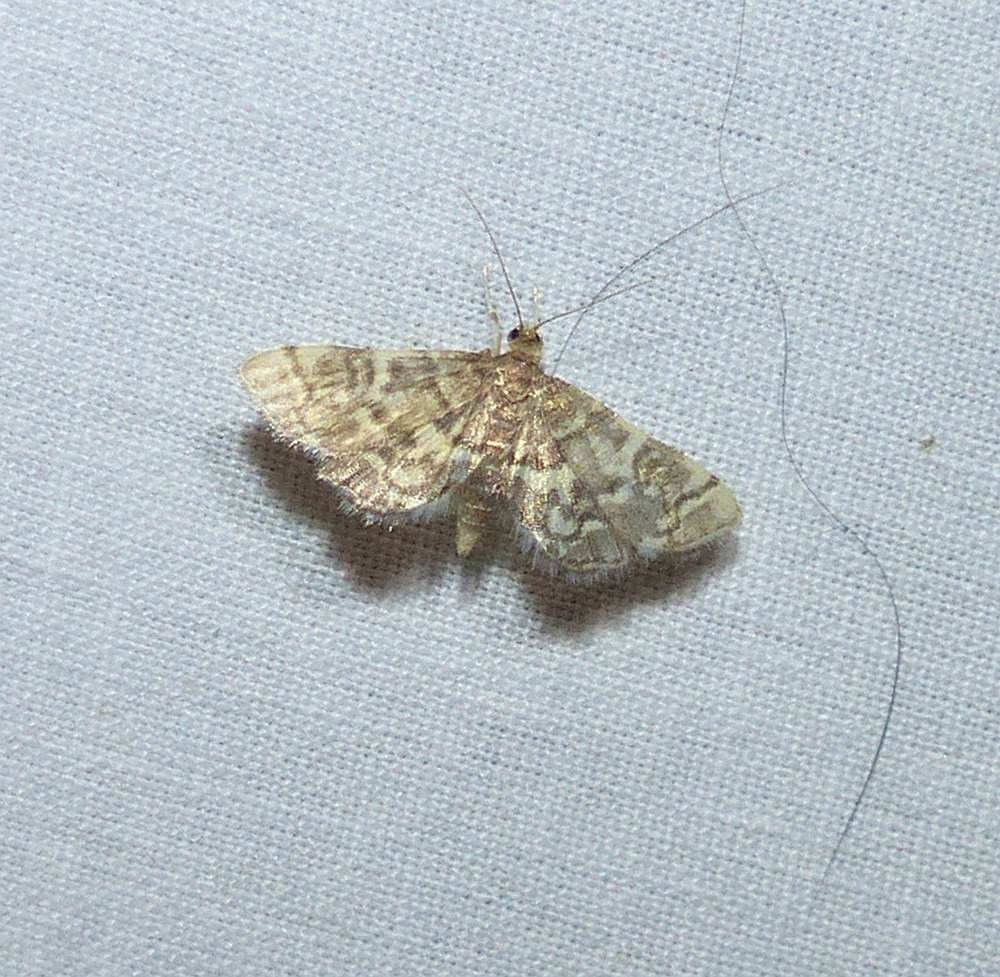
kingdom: Animalia
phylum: Arthropoda
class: Insecta
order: Lepidoptera
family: Crambidae
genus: Anageshna
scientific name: Anageshna primordialis
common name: Yellow-spotted webworm moth
